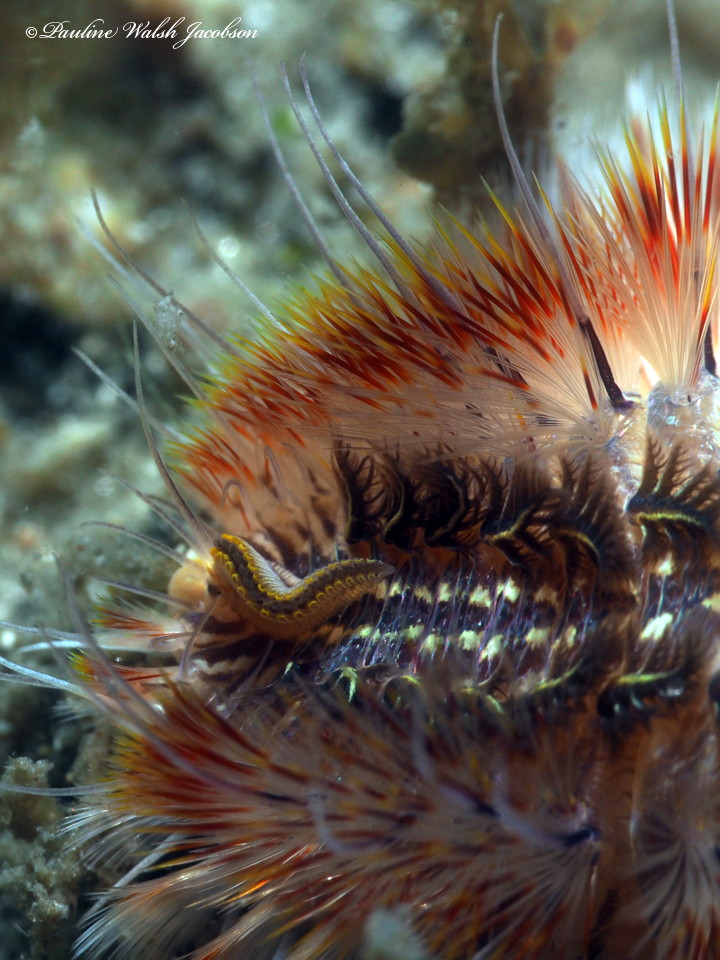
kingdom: Animalia
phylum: Annelida
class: Polychaeta
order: Amphinomida
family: Amphinomidae
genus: Chloeia
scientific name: Chloeia euglochis
